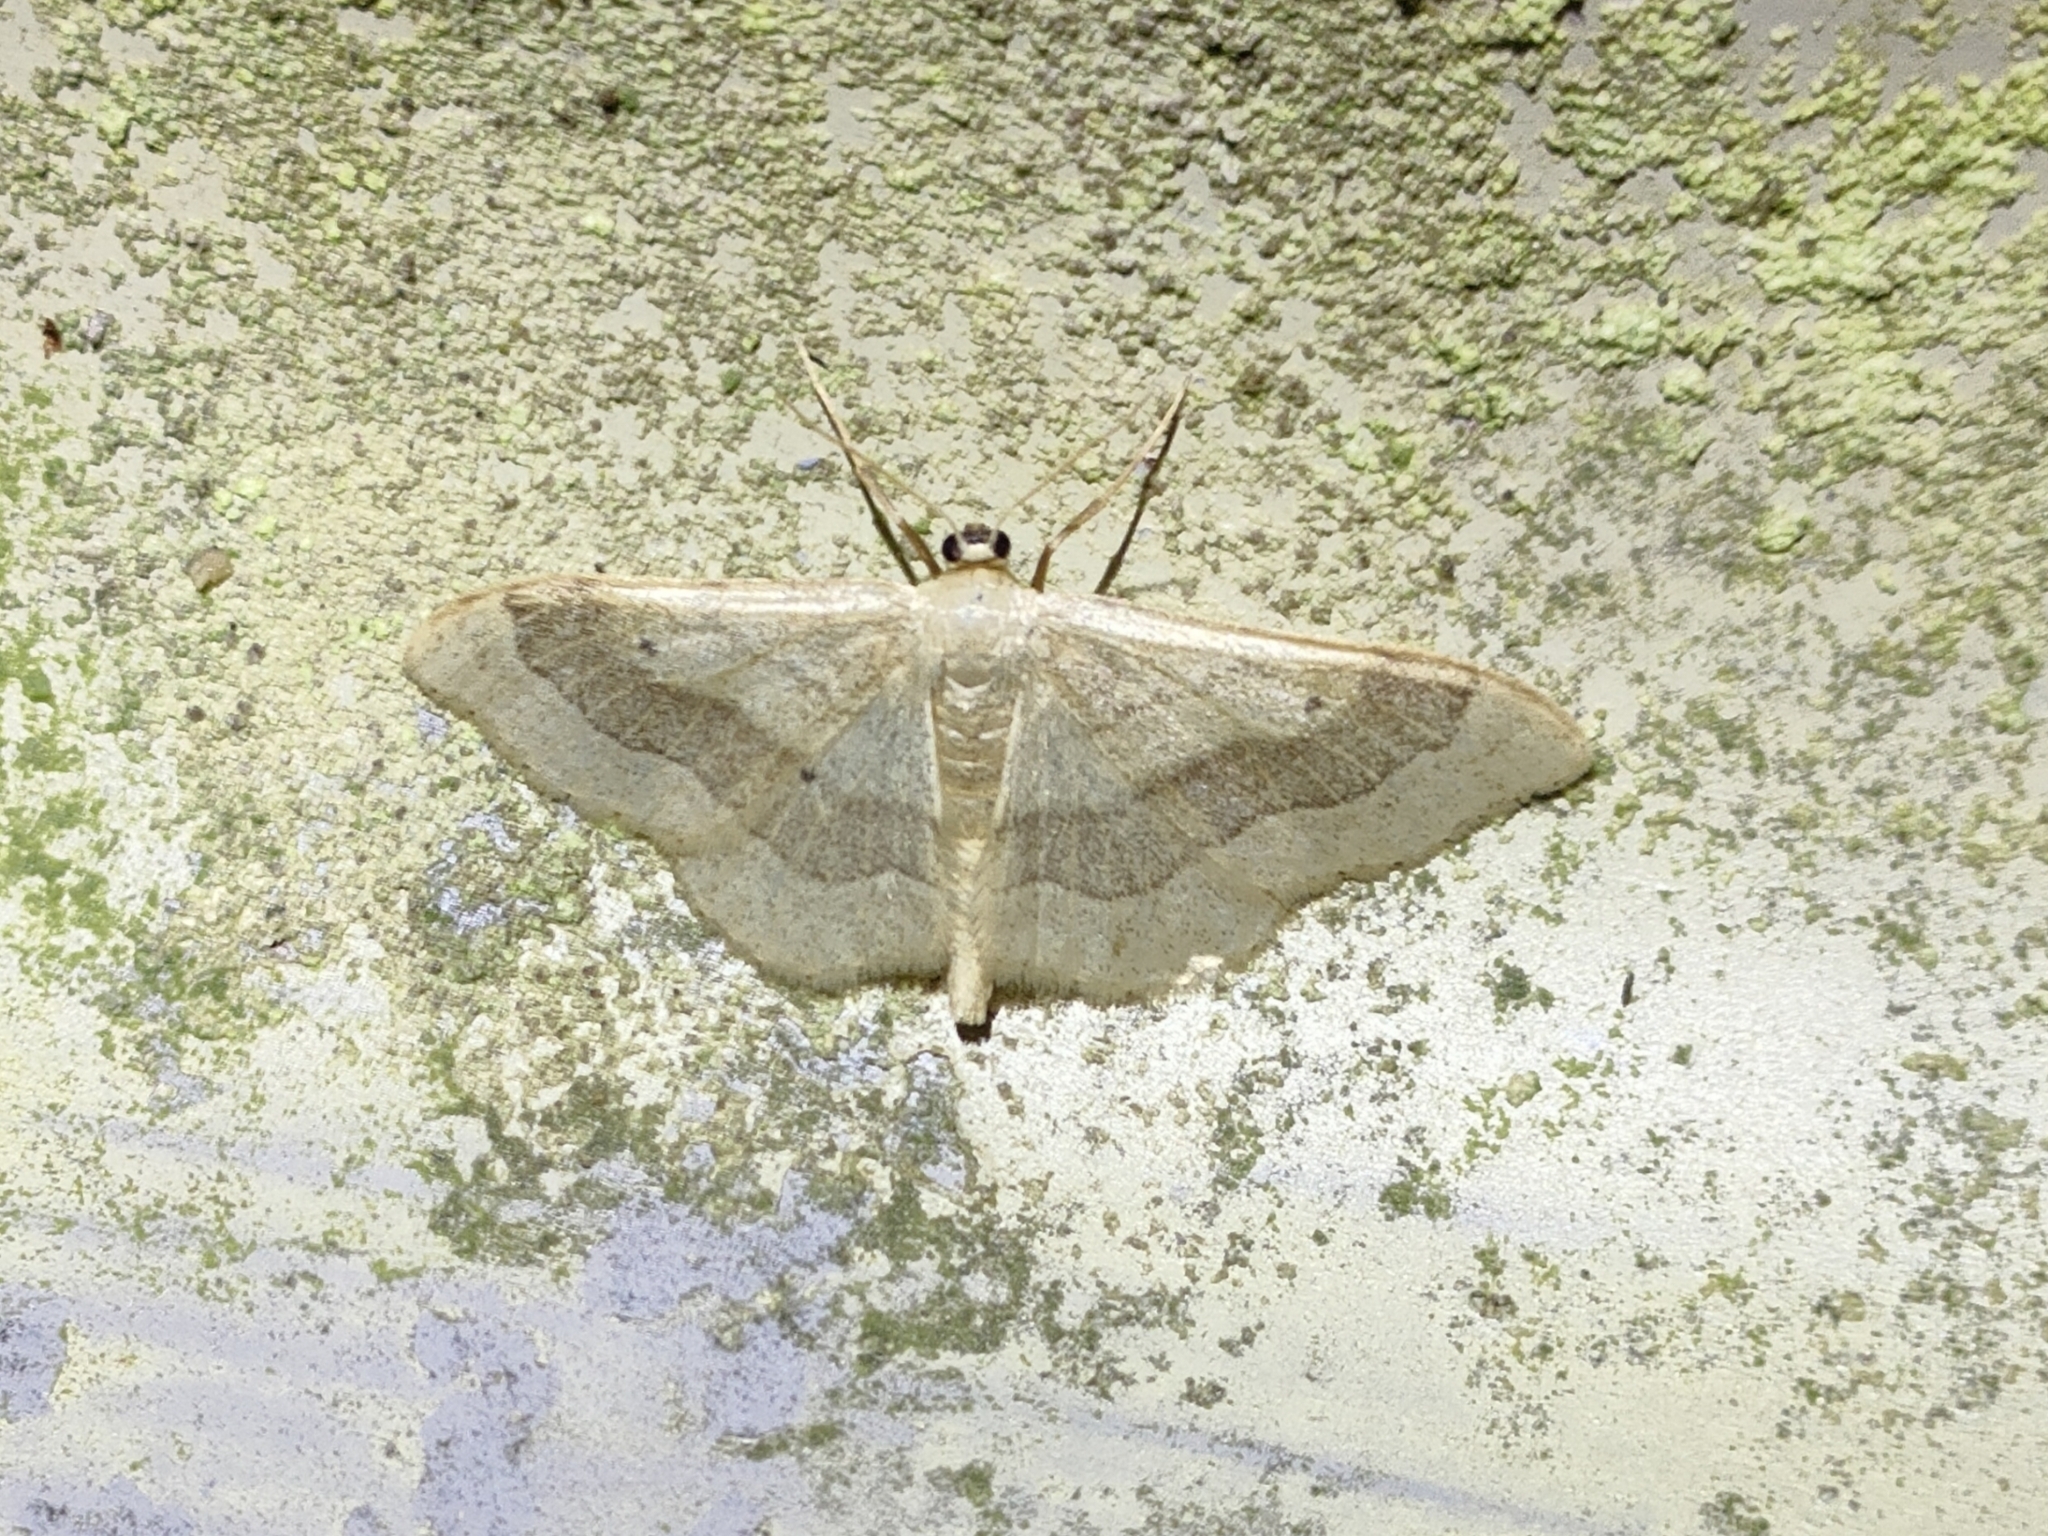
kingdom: Animalia
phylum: Arthropoda
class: Insecta
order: Lepidoptera
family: Geometridae
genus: Idaea
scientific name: Idaea aversata
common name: Riband wave
